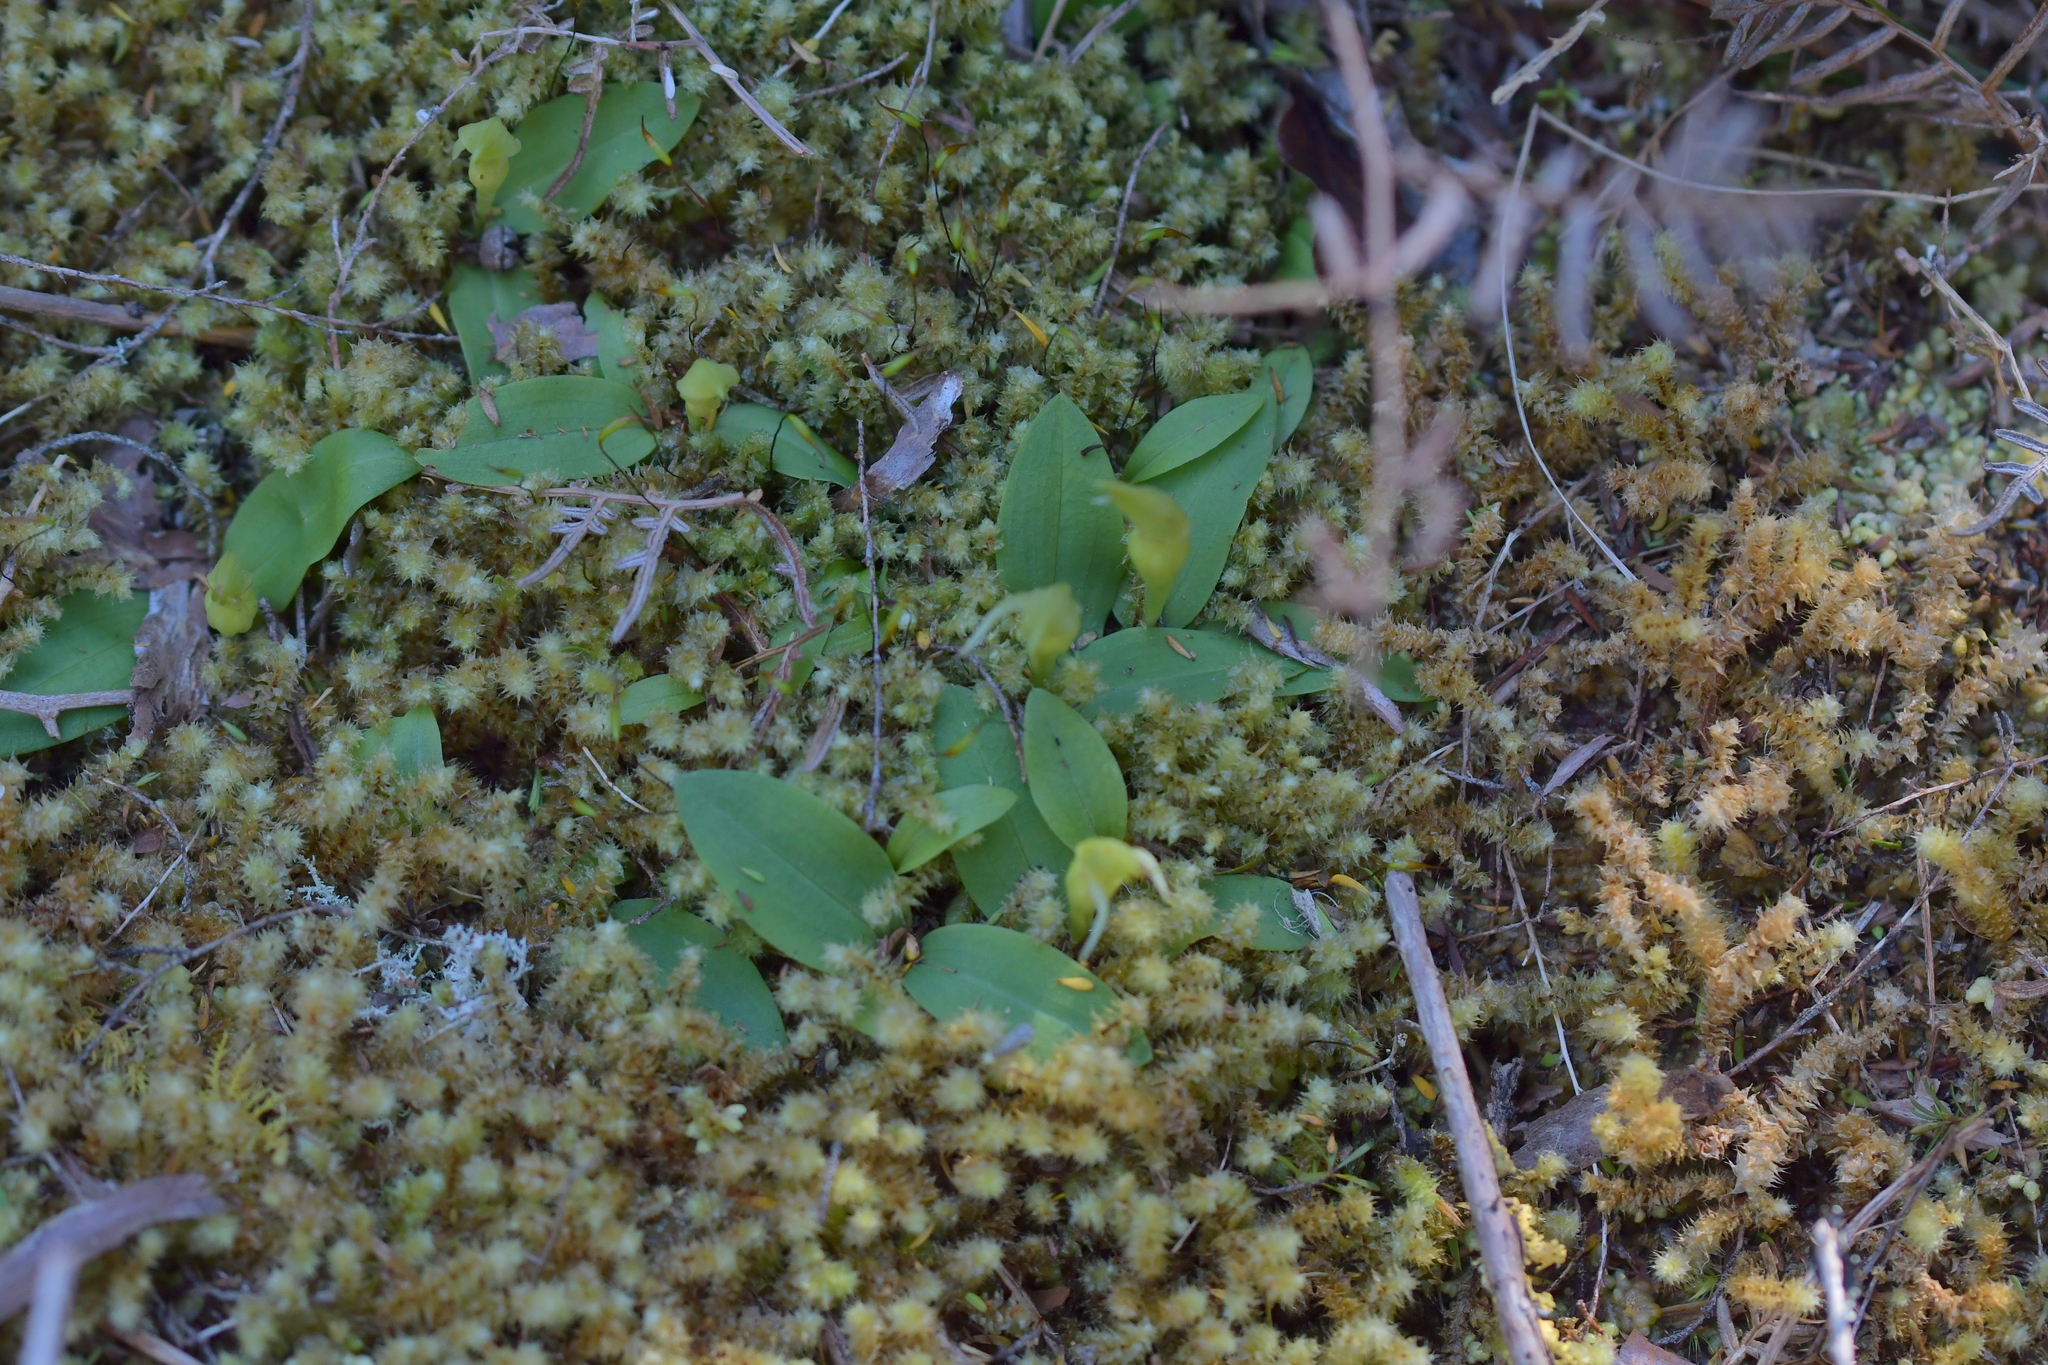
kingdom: Plantae
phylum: Tracheophyta
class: Liliopsida
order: Asparagales
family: Orchidaceae
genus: Chiloglottis
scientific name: Chiloglottis cornuta
